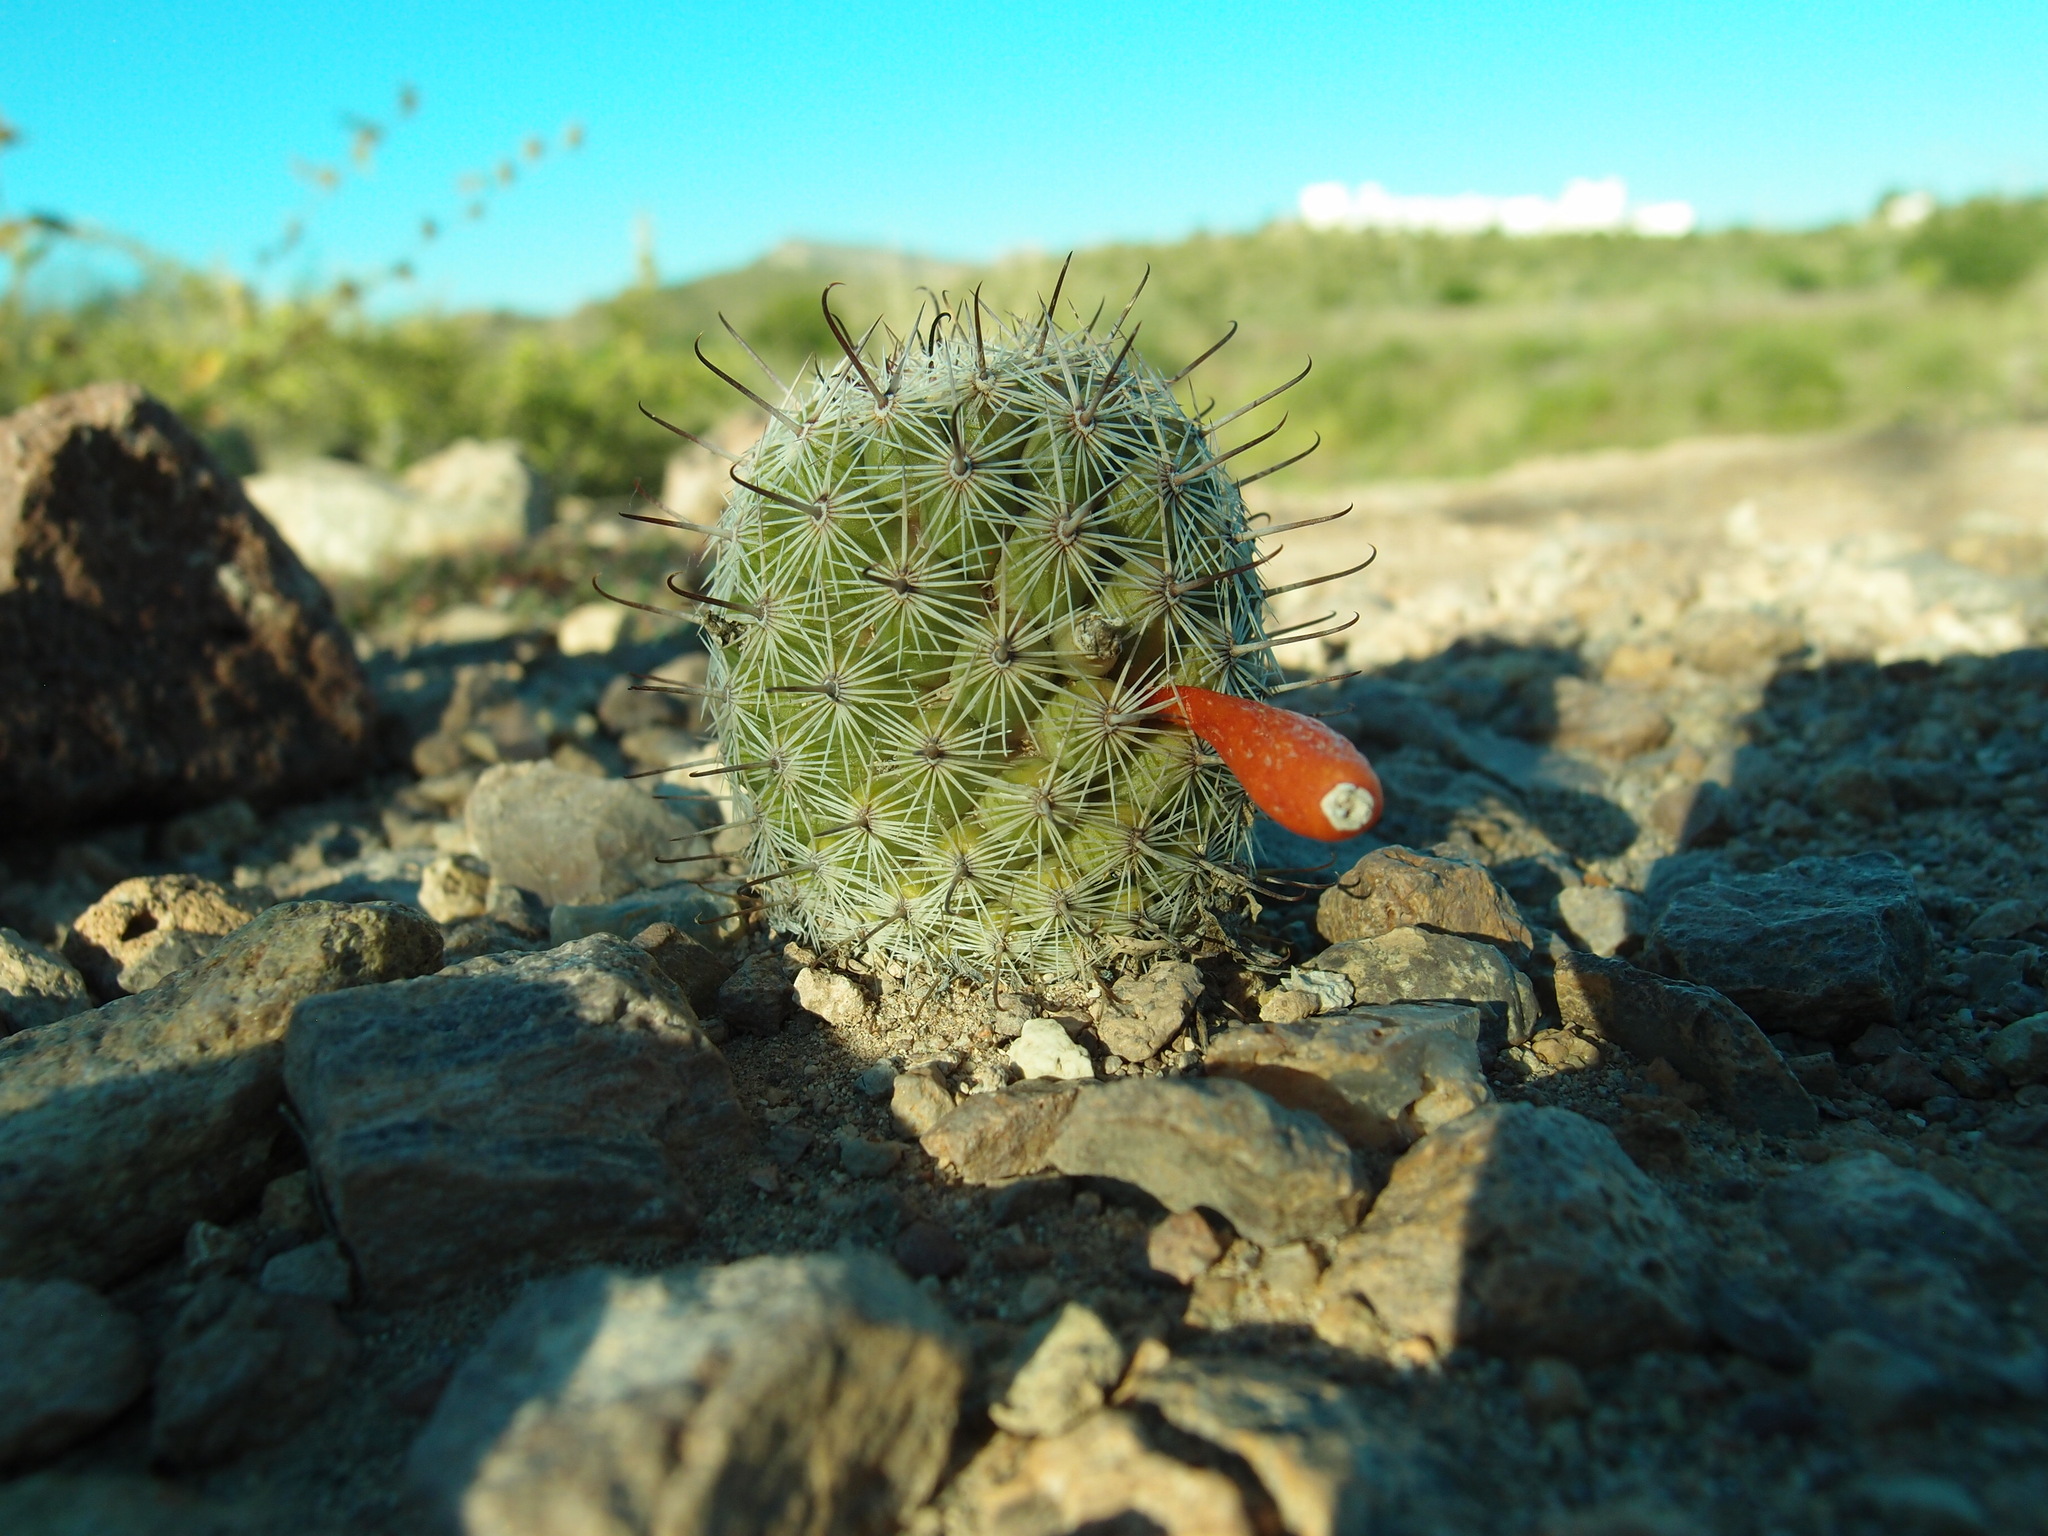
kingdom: Plantae
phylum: Tracheophyta
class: Magnoliopsida
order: Caryophyllales
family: Cactaceae
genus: Cochemiea
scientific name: Cochemiea sheldonii
